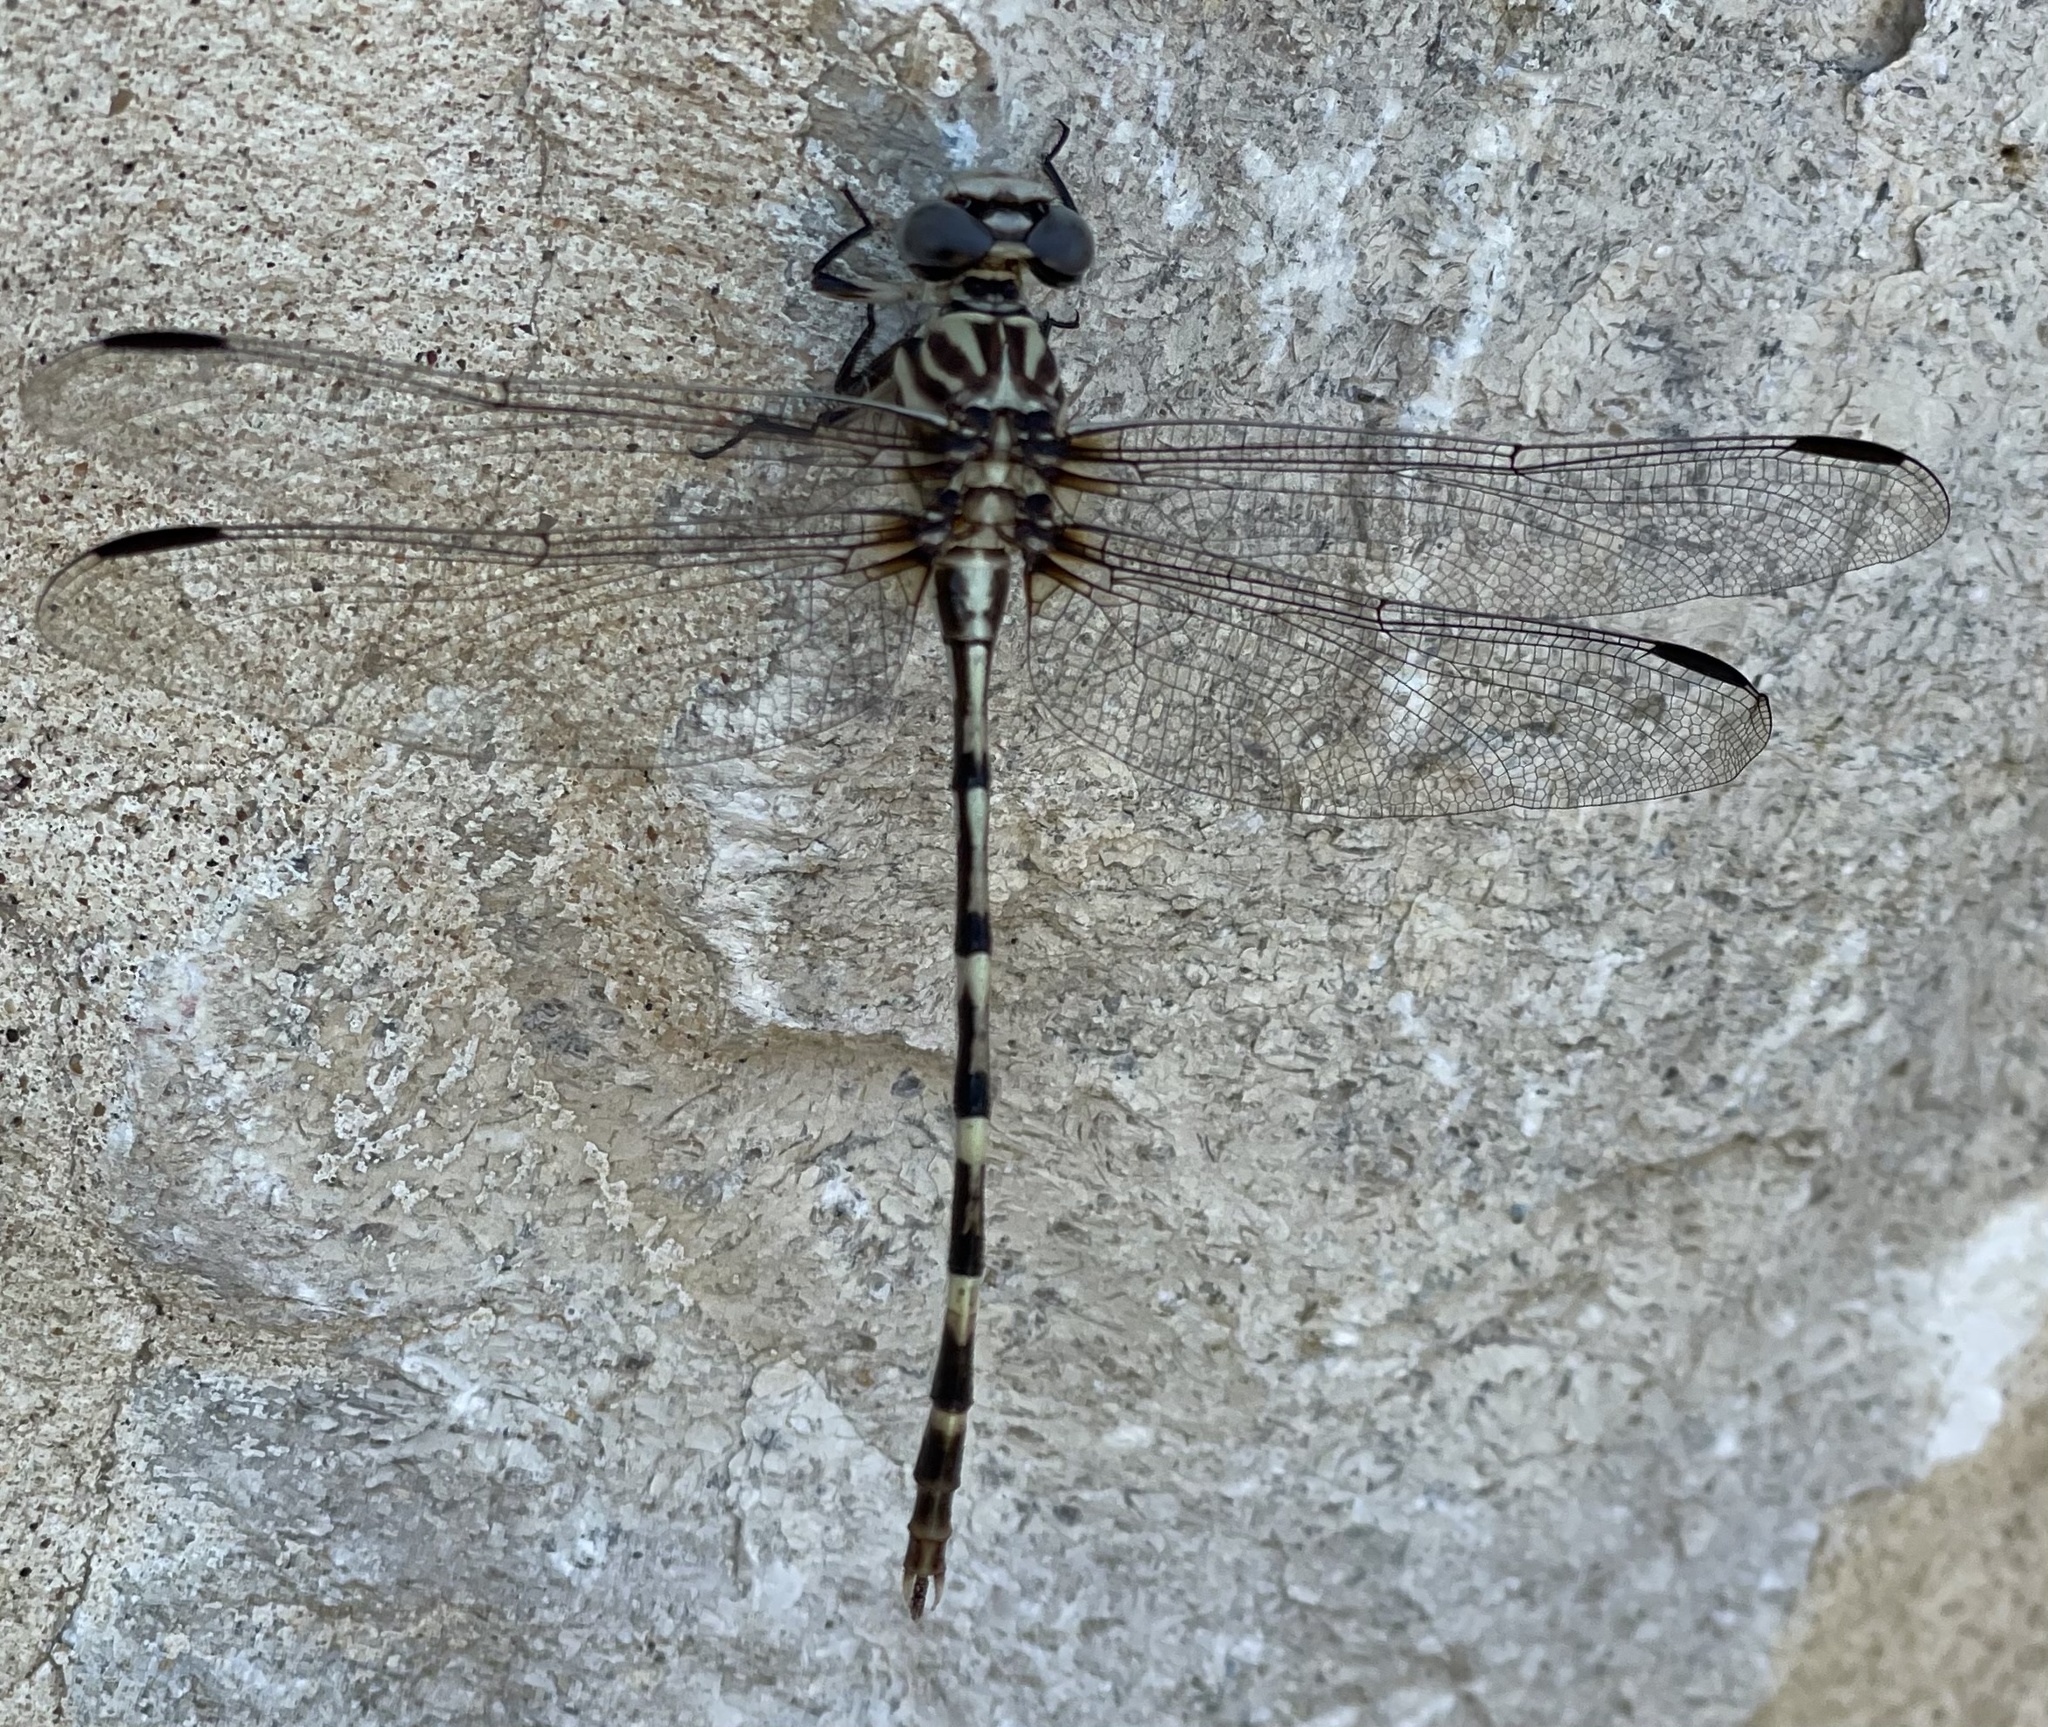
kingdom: Animalia
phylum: Arthropoda
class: Insecta
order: Odonata
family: Gomphidae
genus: Phyllogomphoides
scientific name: Phyllogomphoides stigmatus
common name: Four-striped leaftail
